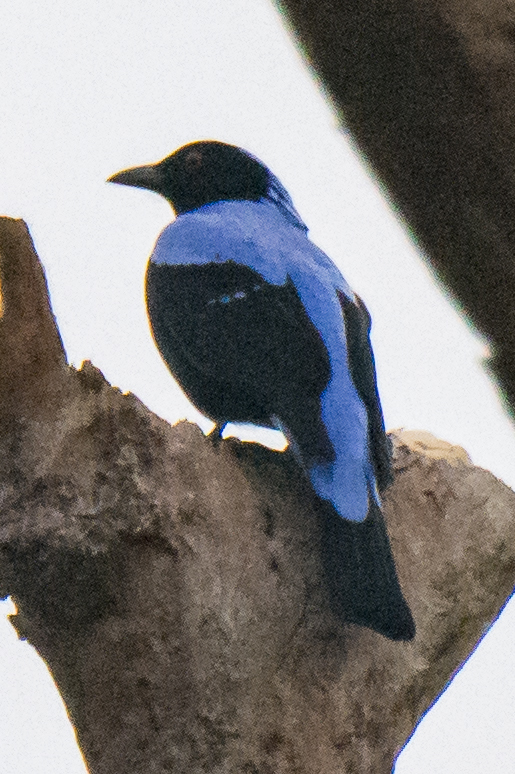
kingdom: Animalia
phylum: Chordata
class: Aves
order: Passeriformes
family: Irenidae
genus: Irena
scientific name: Irena puella
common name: Asian fairy-bluebird
